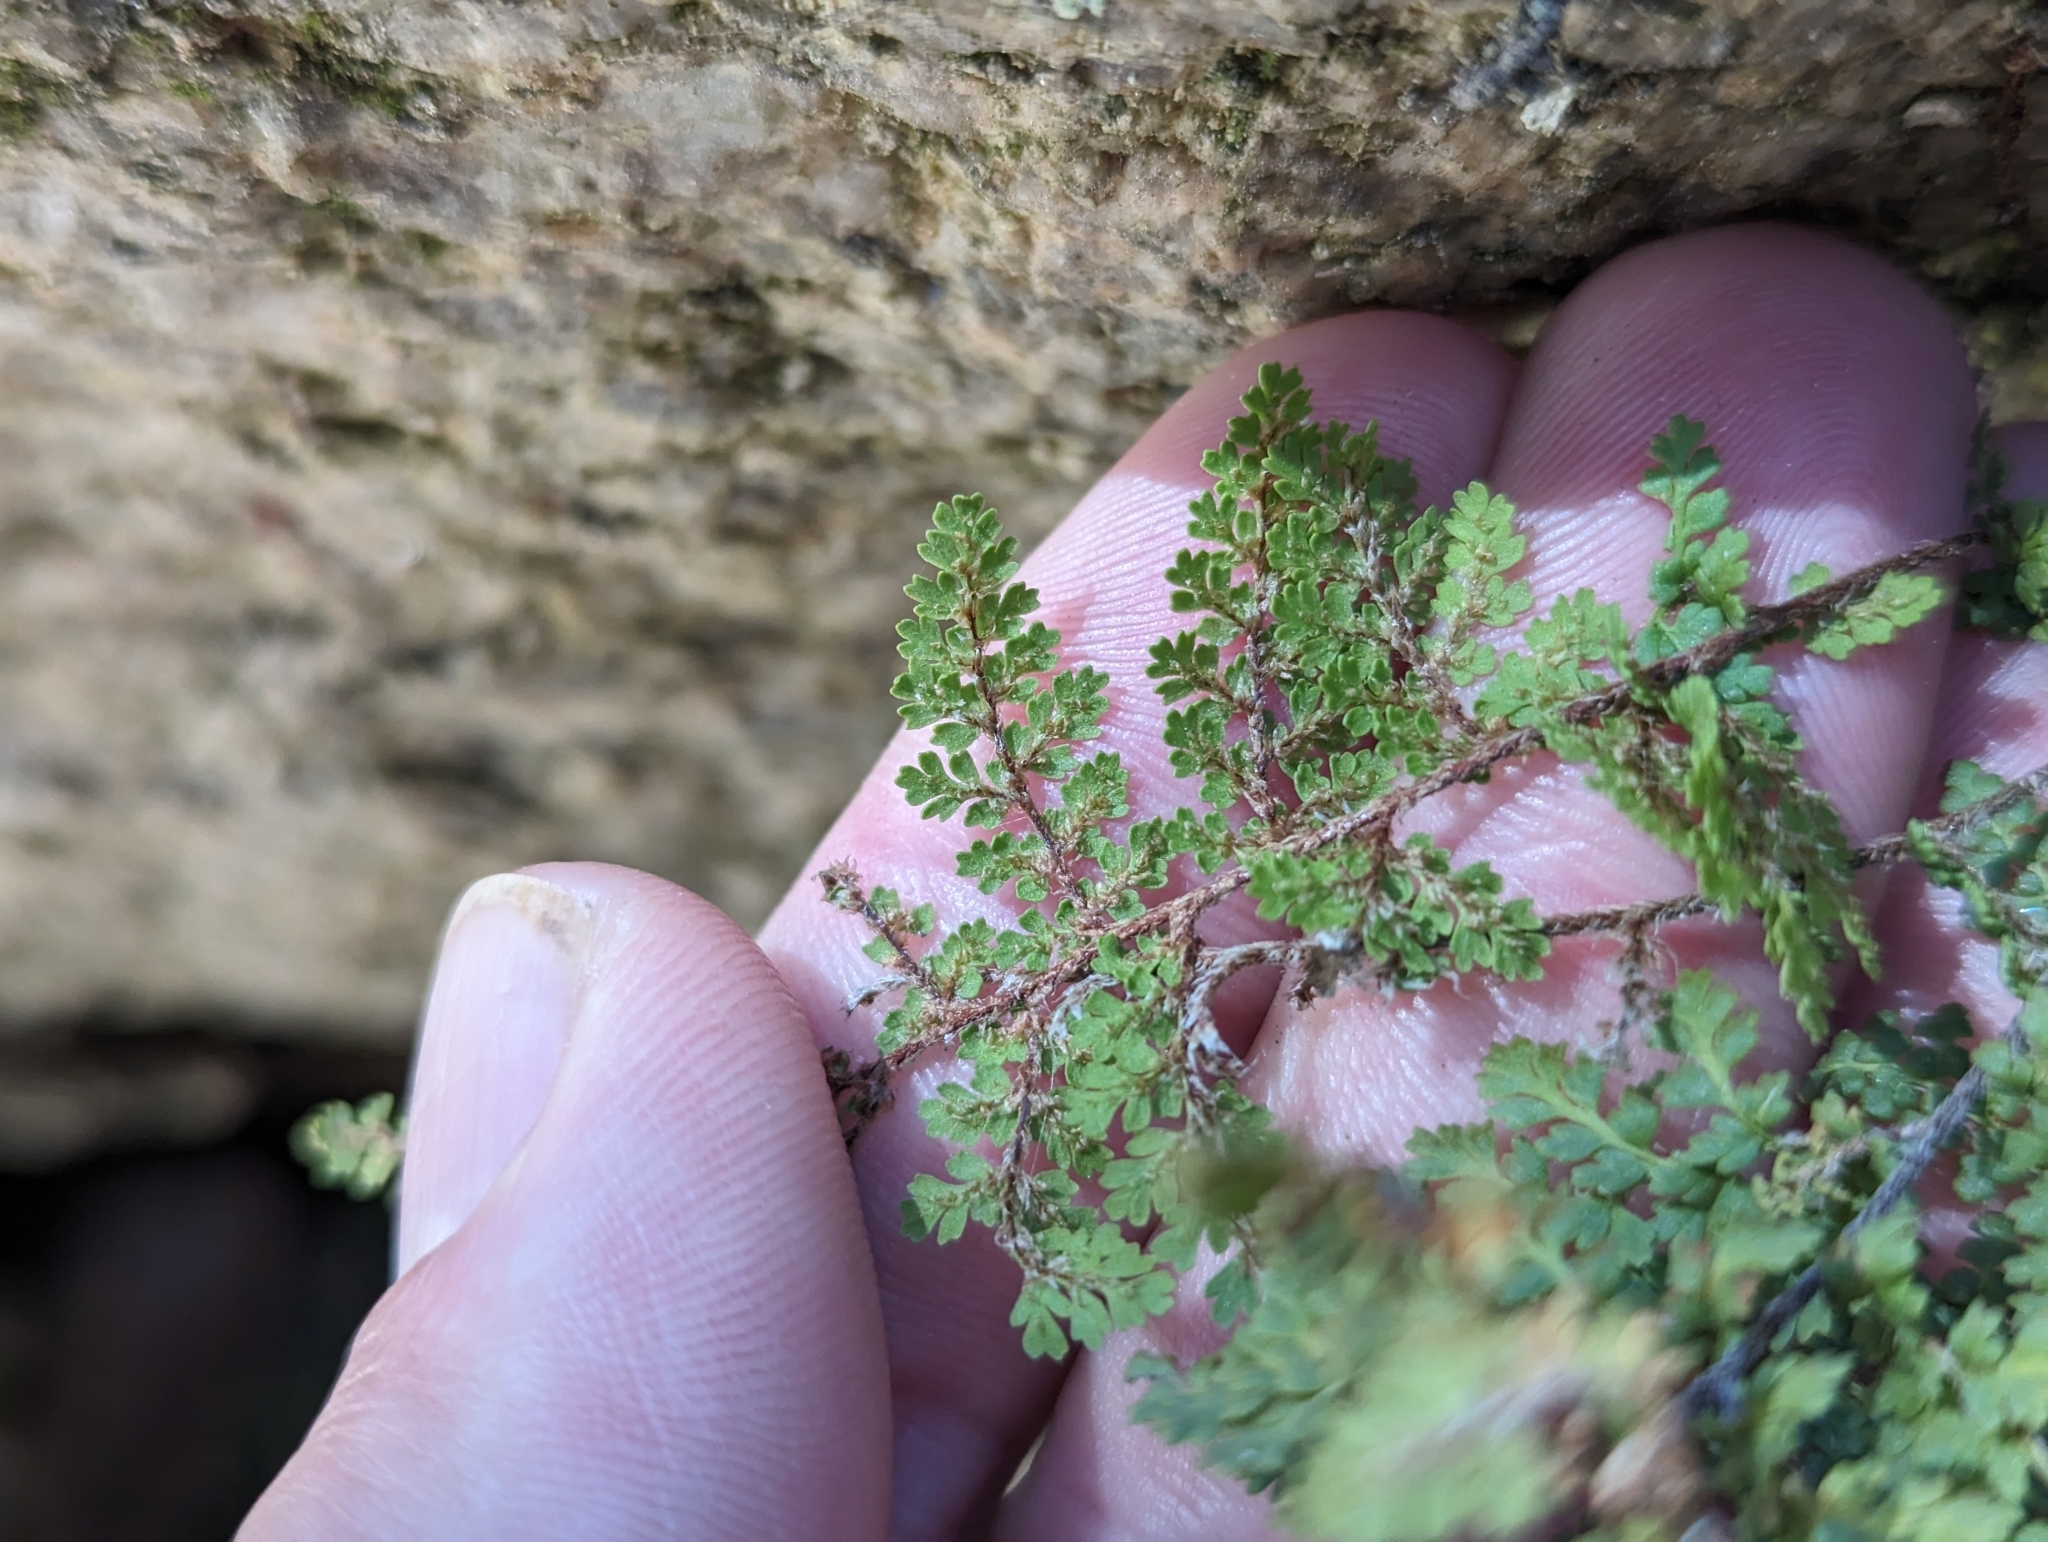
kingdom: Plantae
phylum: Tracheophyta
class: Polypodiopsida
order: Polypodiales
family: Pteridaceae
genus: Myriopteris
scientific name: Myriopteris fendleri
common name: Fendler's lip fern
